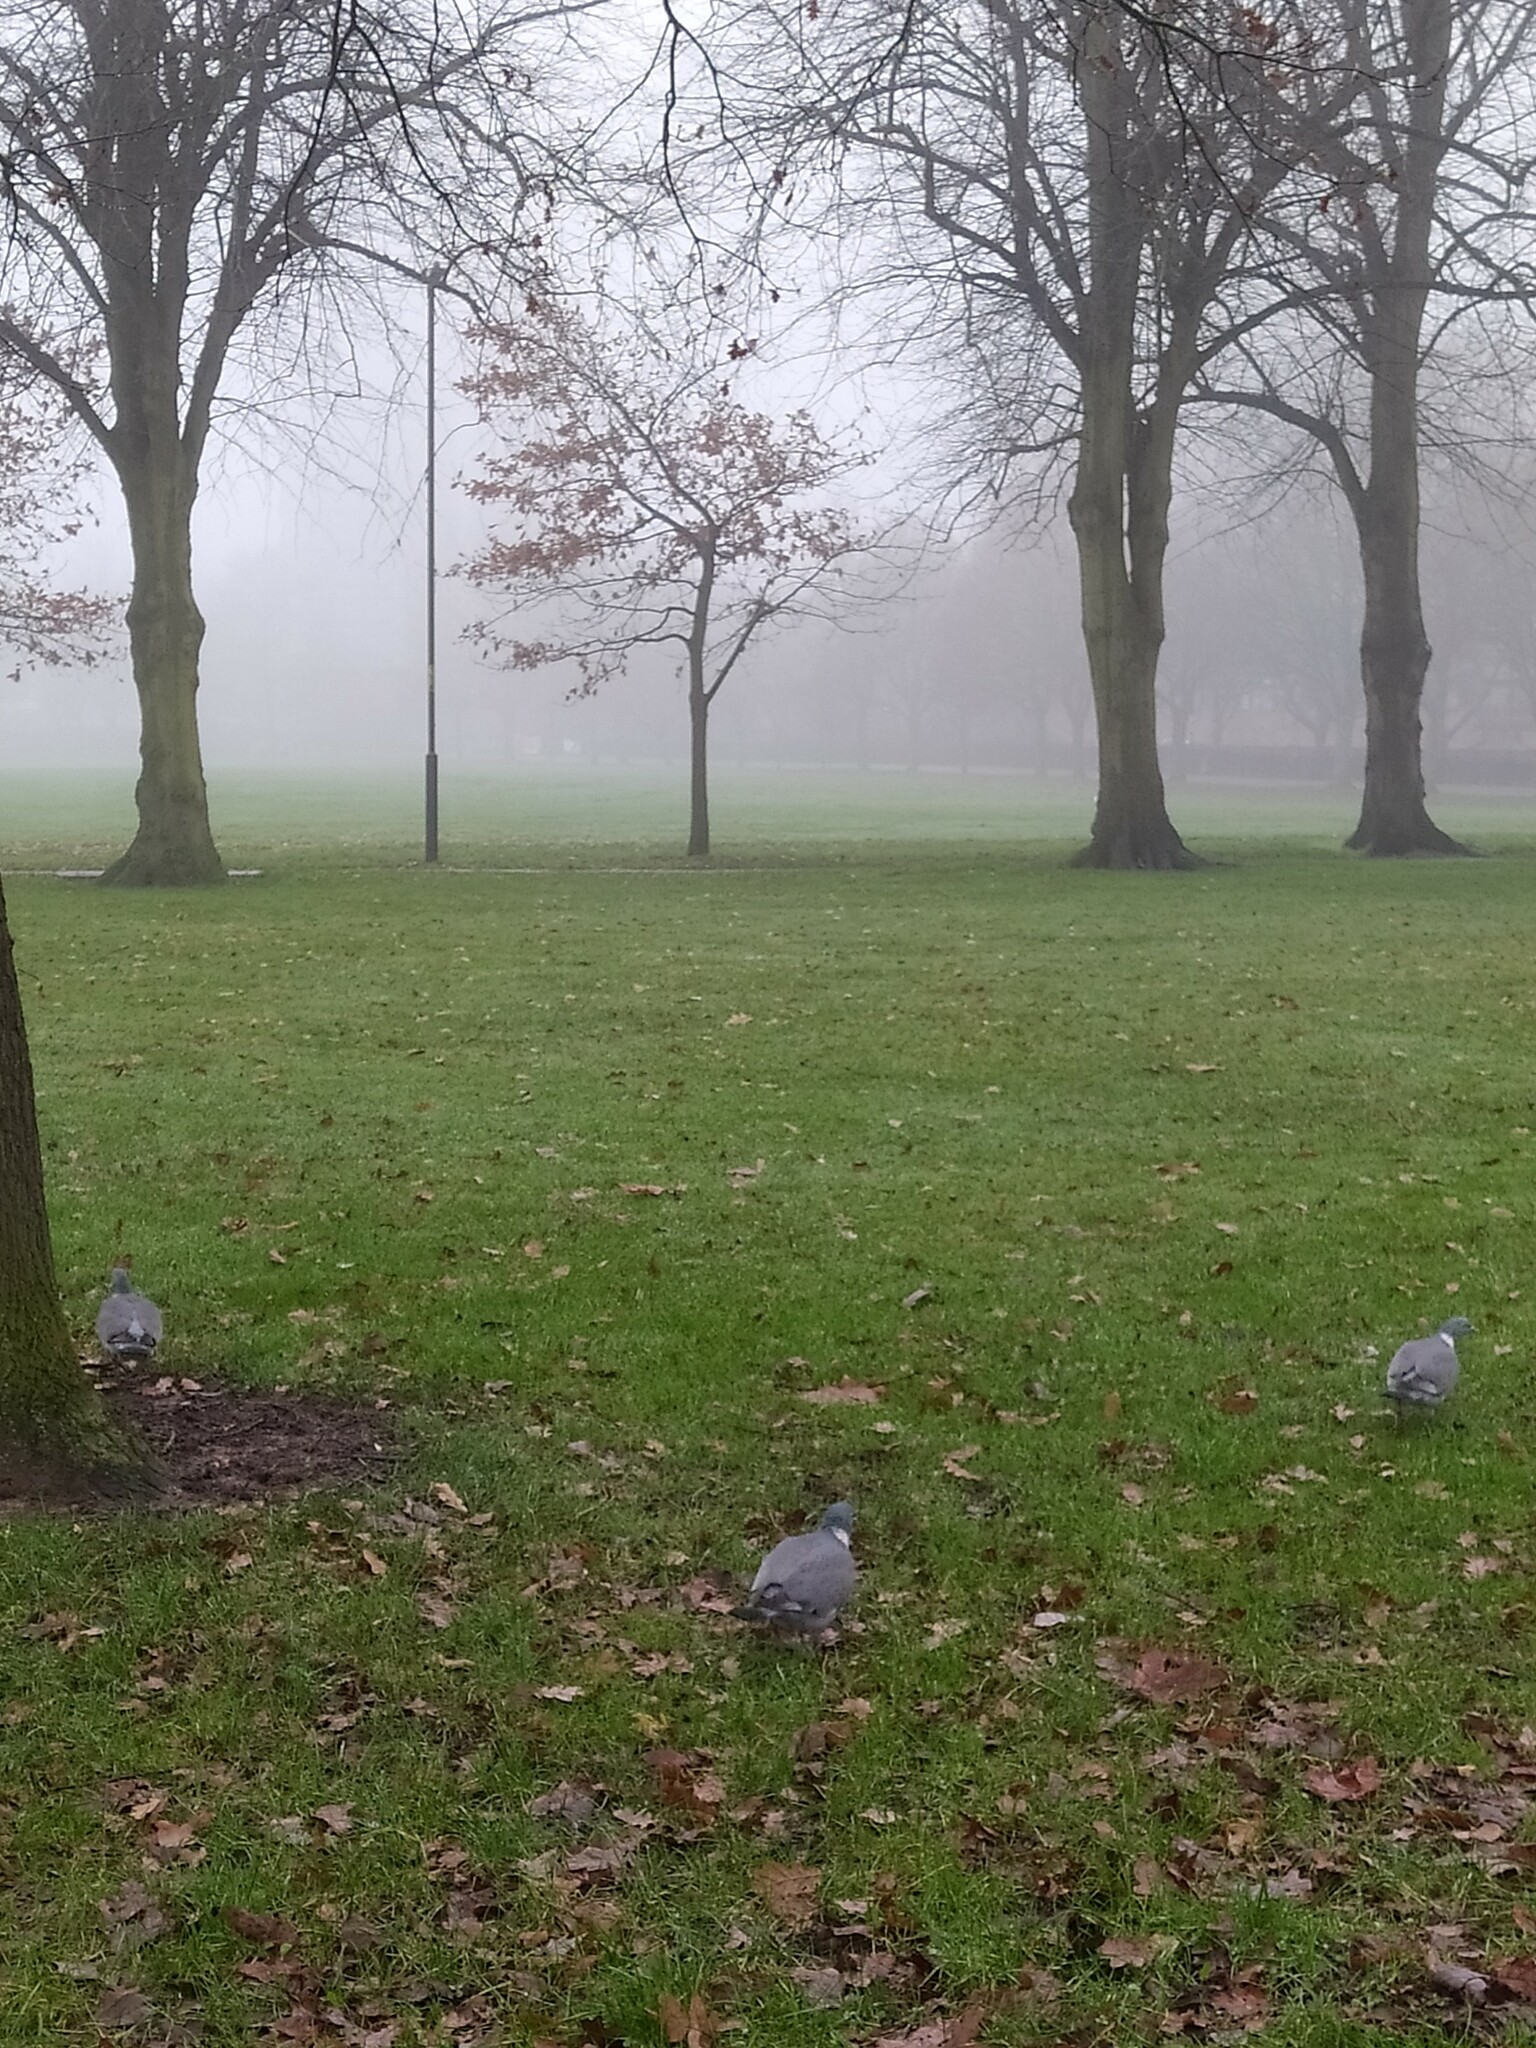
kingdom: Animalia
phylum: Chordata
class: Aves
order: Columbiformes
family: Columbidae
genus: Columba
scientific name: Columba palumbus
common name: Common wood pigeon
